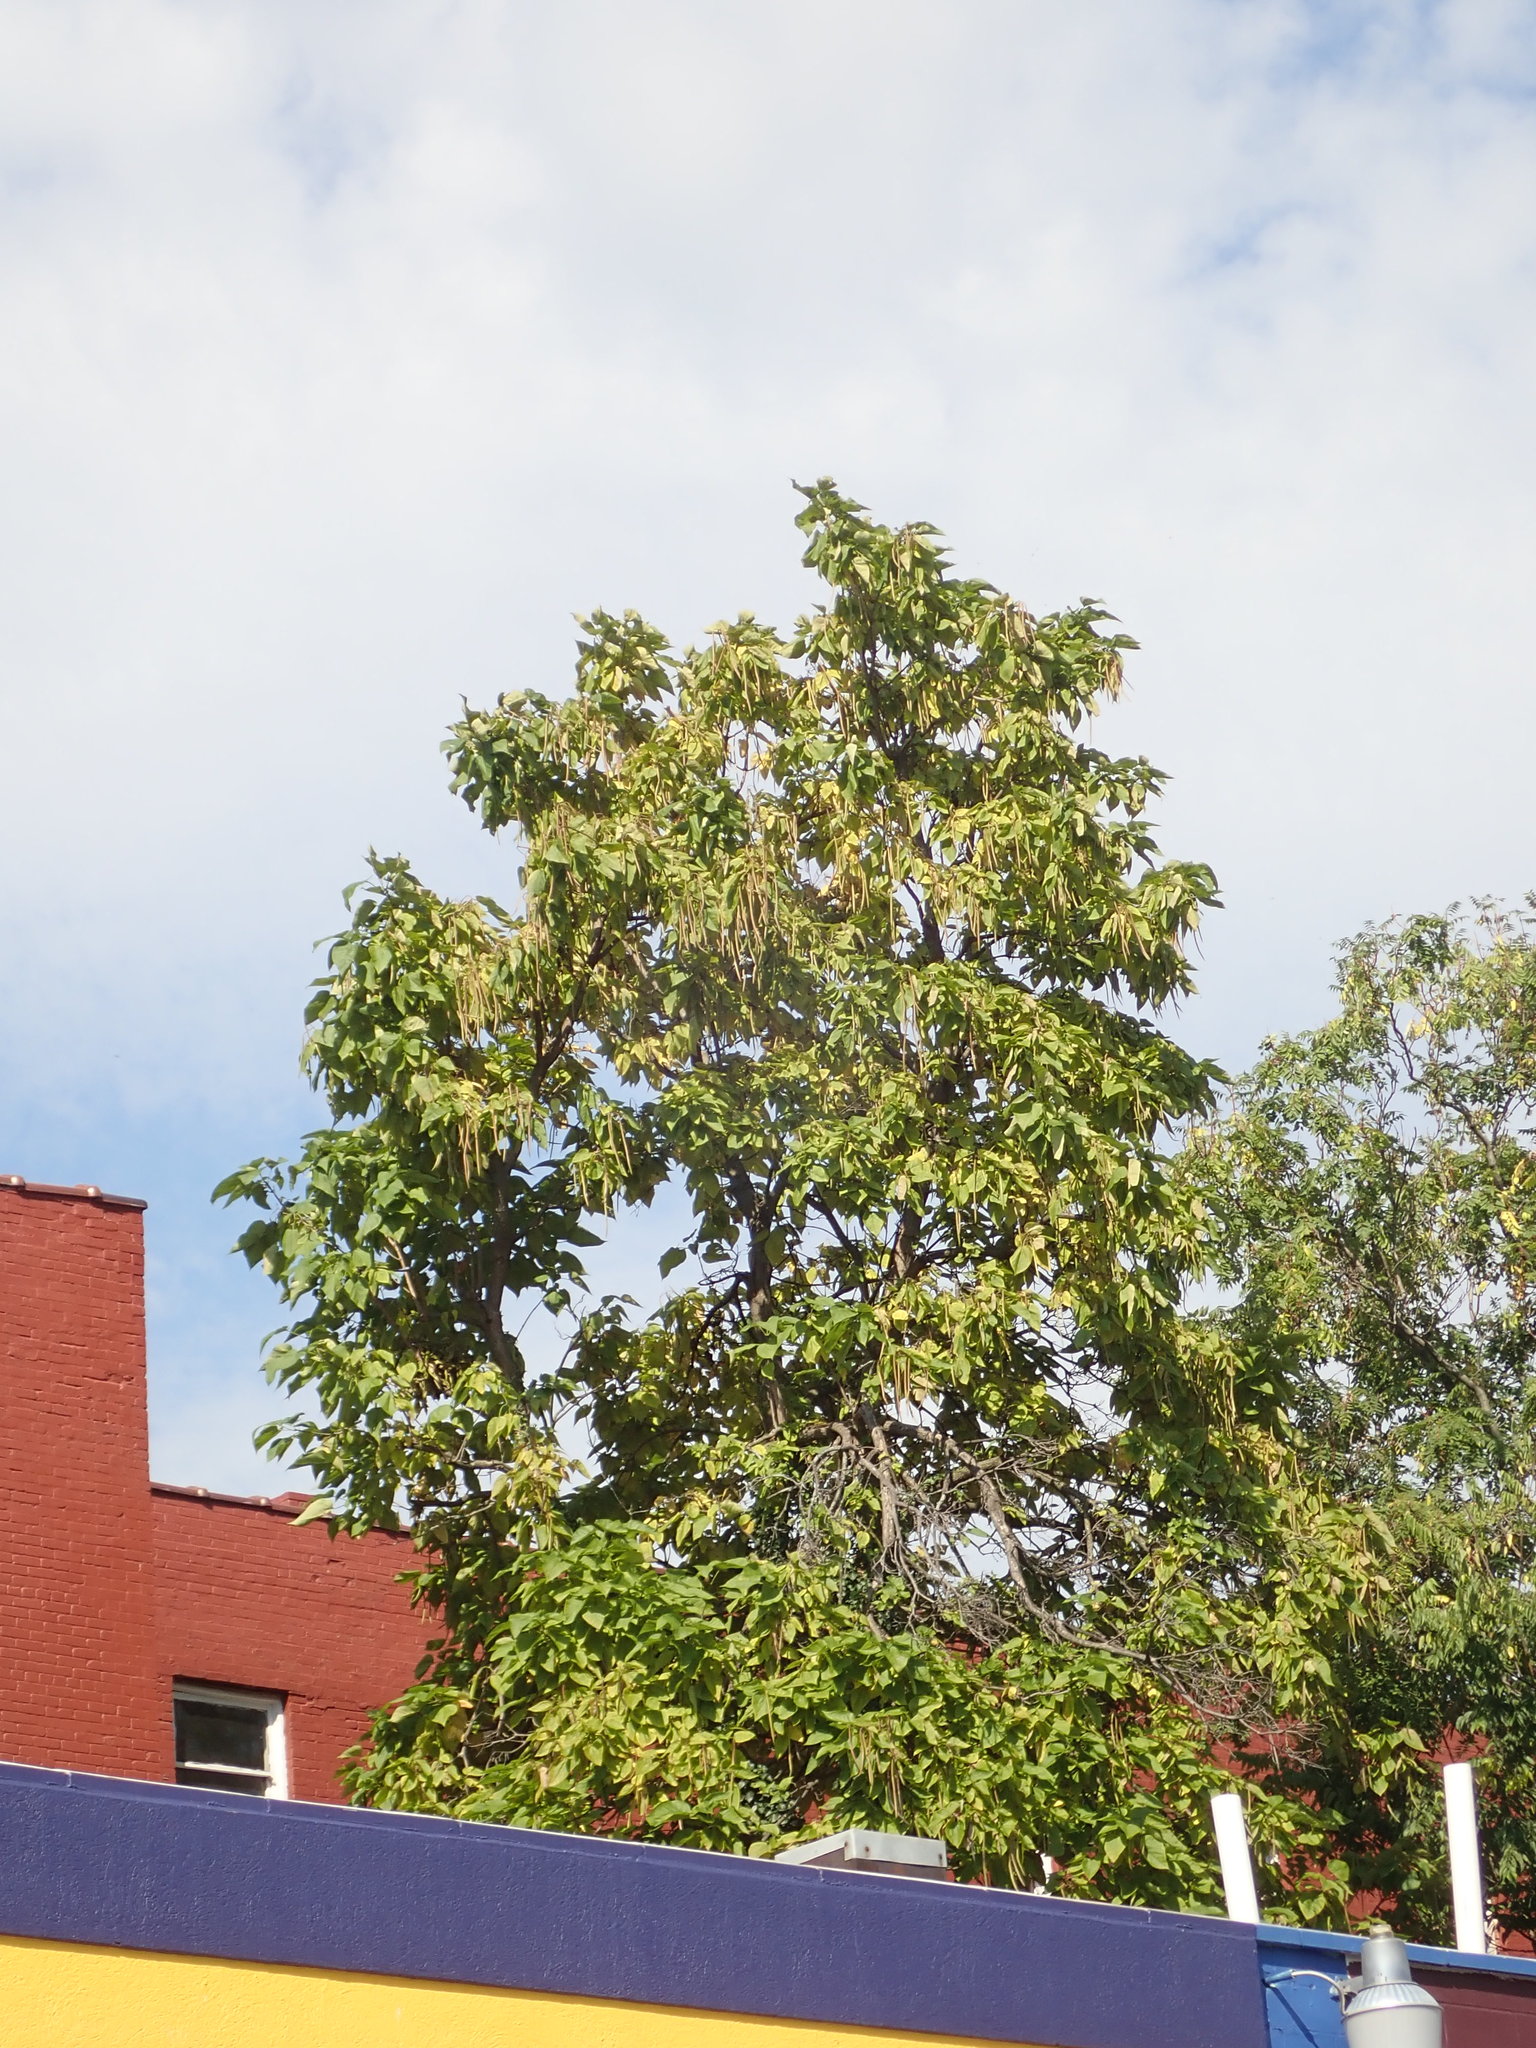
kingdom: Plantae
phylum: Tracheophyta
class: Magnoliopsida
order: Lamiales
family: Bignoniaceae
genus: Catalpa
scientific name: Catalpa speciosa
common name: Northern catalpa
